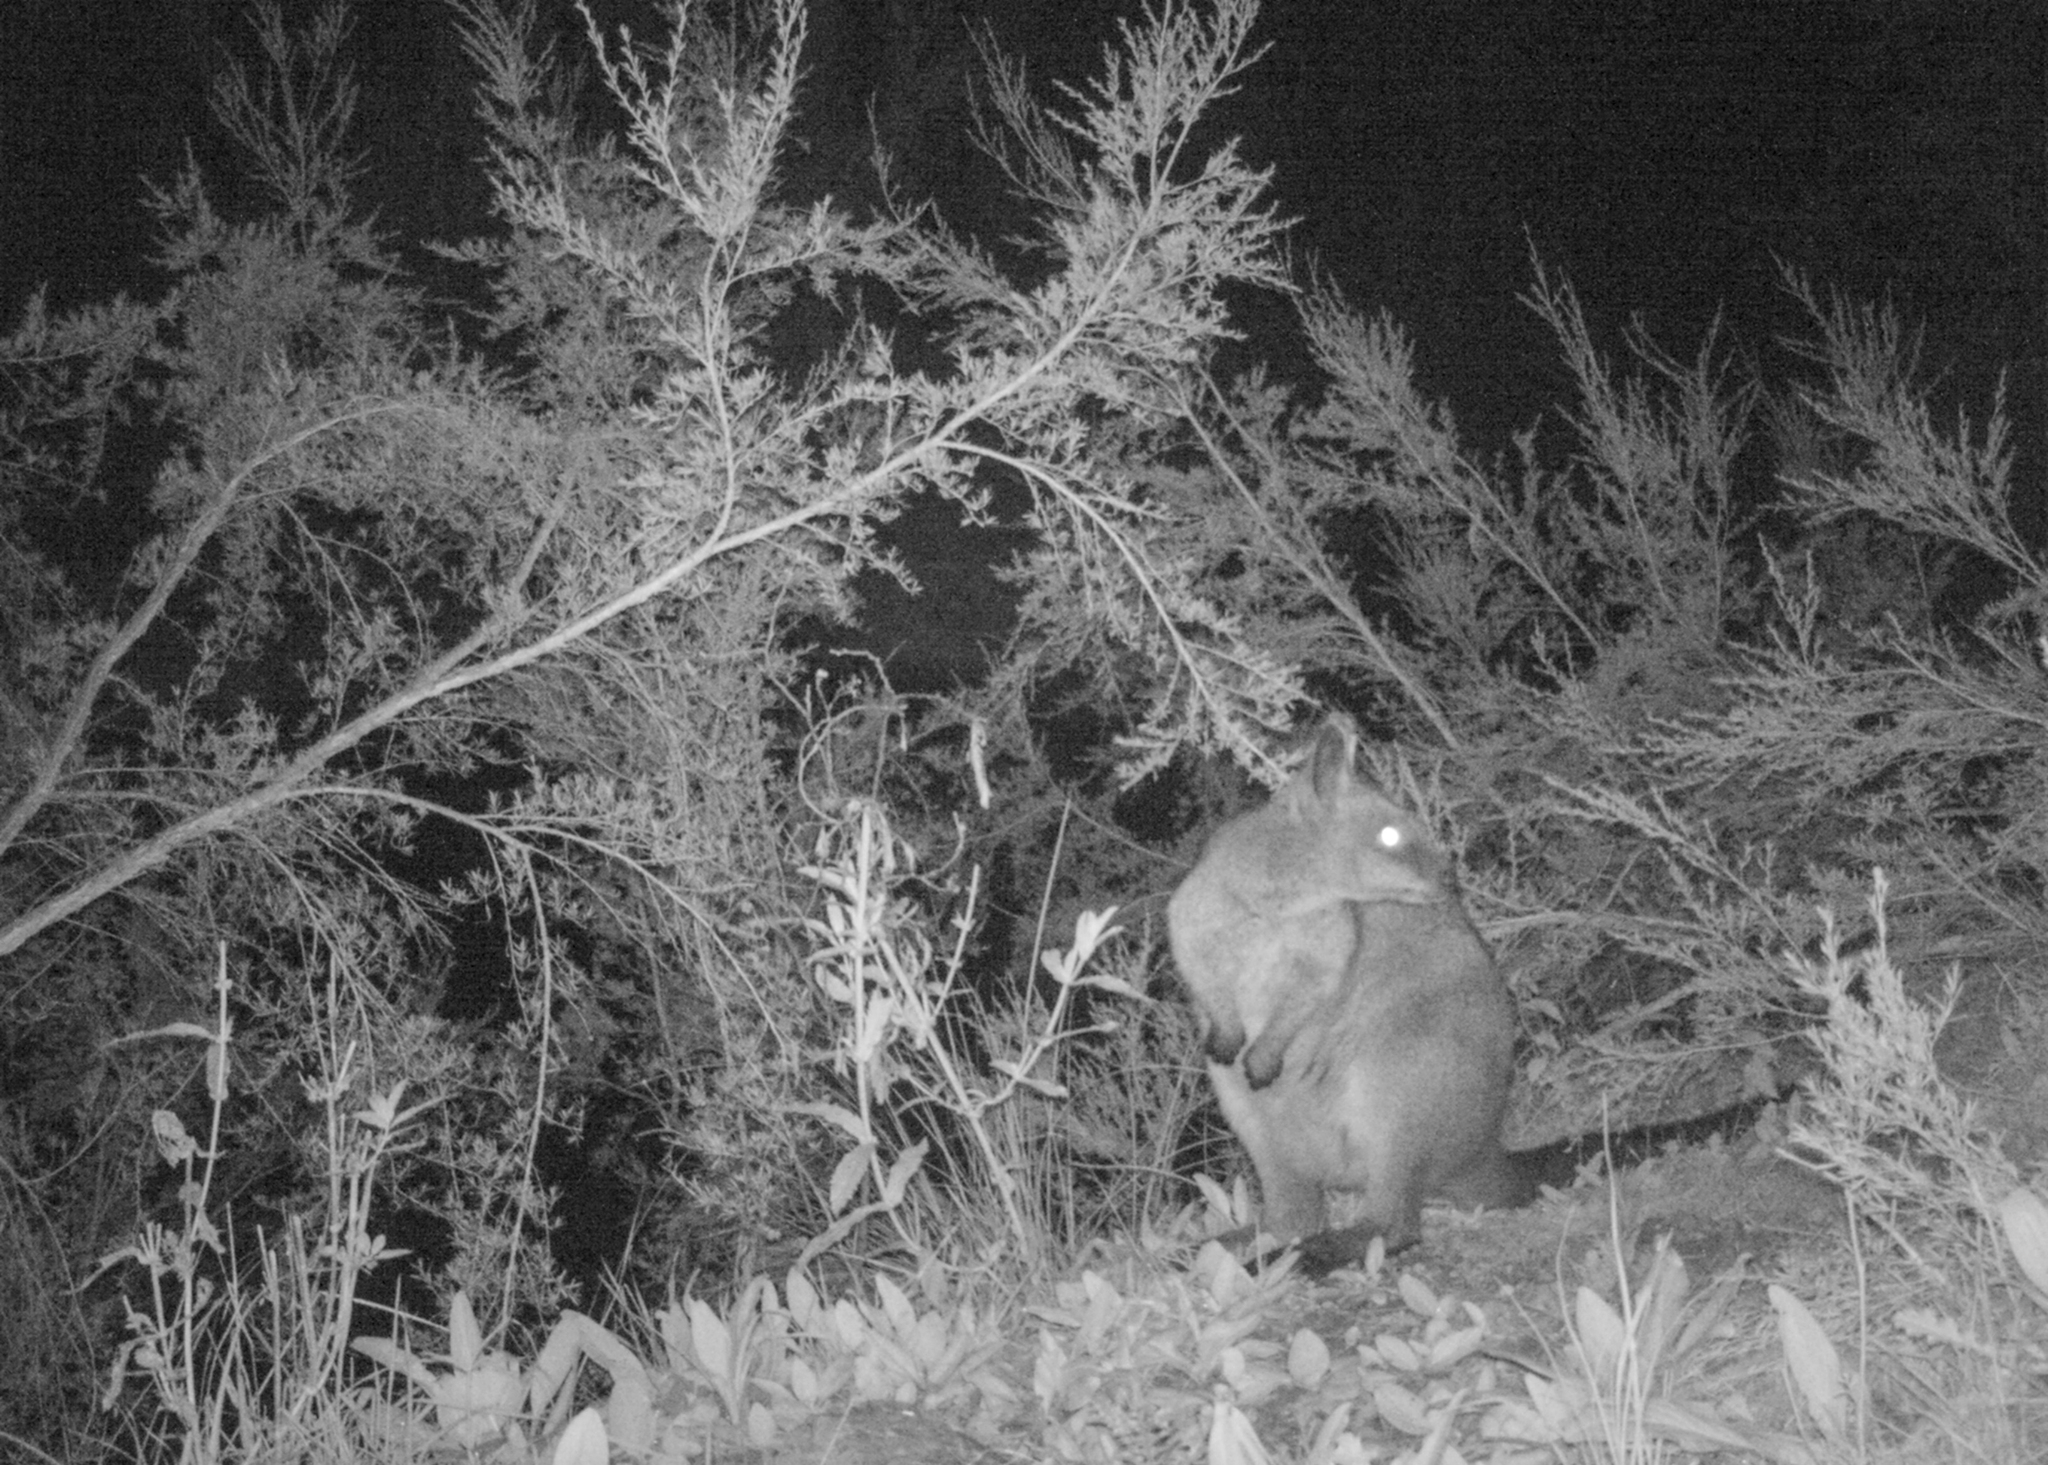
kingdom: Animalia
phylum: Chordata
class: Mammalia
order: Diprotodontia
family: Macropodidae
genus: Wallabia
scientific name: Wallabia bicolor
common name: Swamp wallaby
